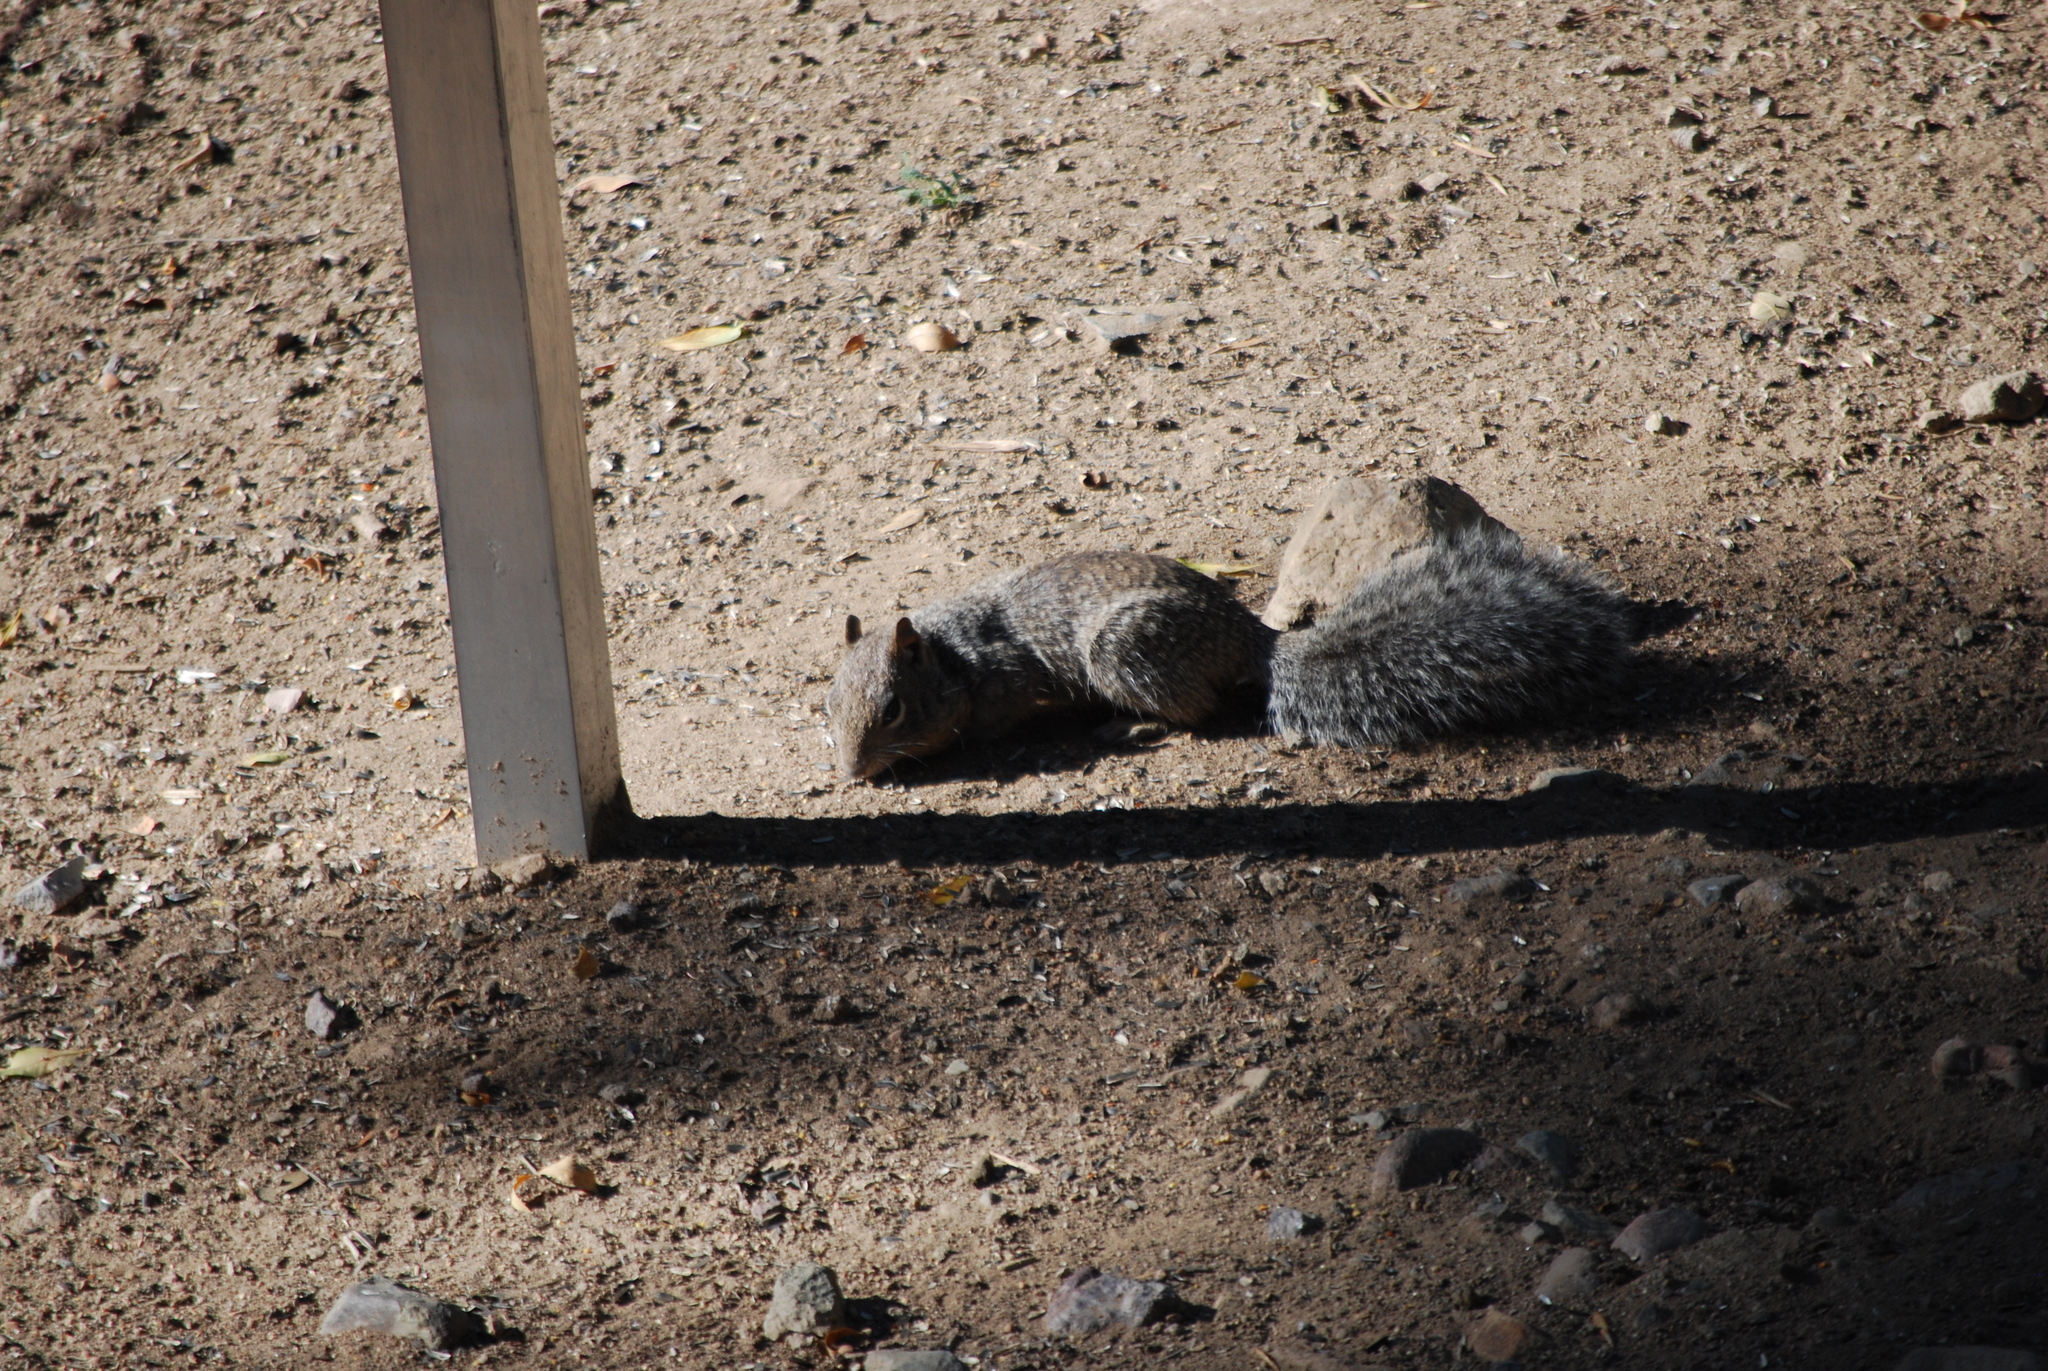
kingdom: Animalia
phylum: Chordata
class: Mammalia
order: Rodentia
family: Sciuridae
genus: Otospermophilus
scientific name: Otospermophilus variegatus
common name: Rock squirrel
